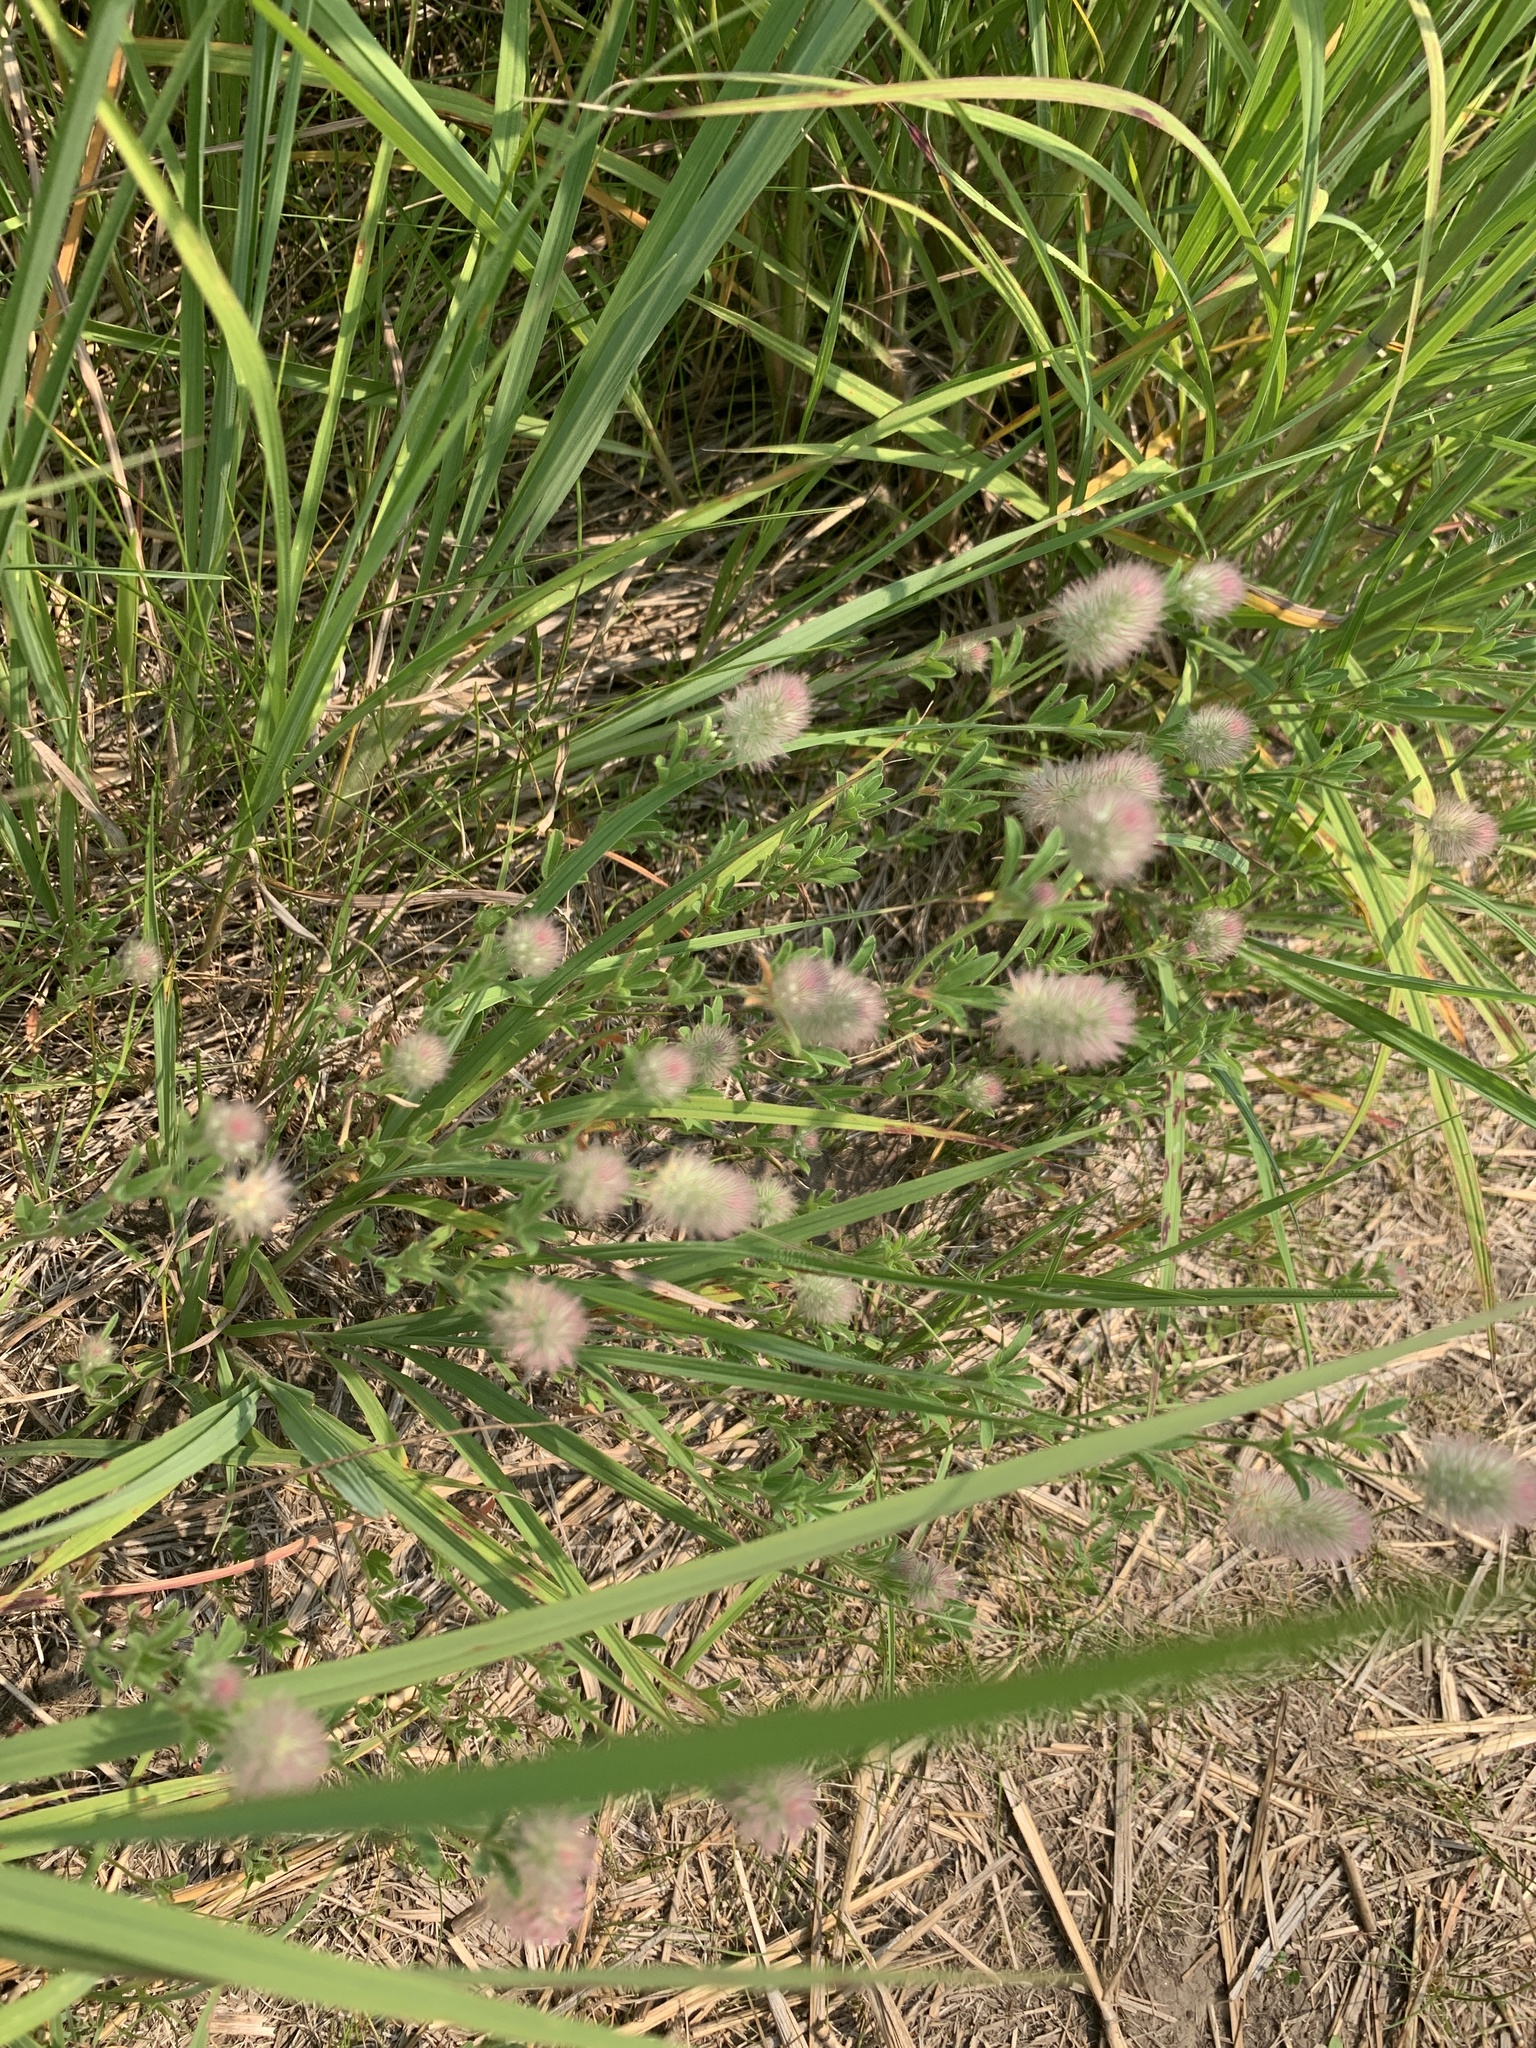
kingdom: Plantae
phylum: Tracheophyta
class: Magnoliopsida
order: Fabales
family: Fabaceae
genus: Trifolium
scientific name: Trifolium arvense
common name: Hare's-foot clover
